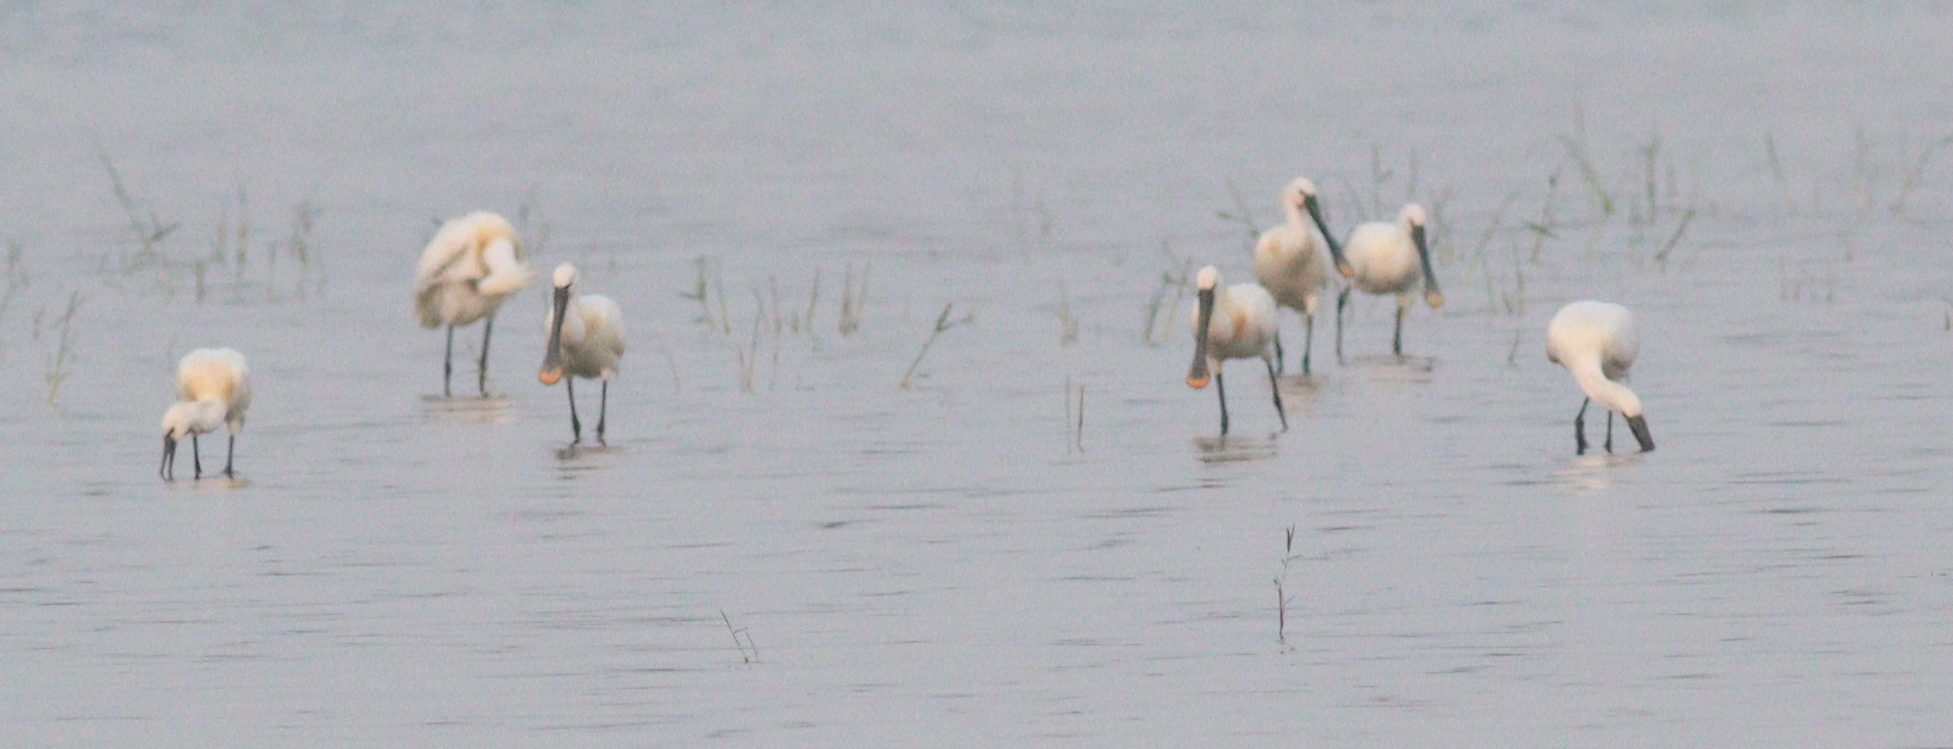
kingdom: Animalia
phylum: Chordata
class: Aves
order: Pelecaniformes
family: Threskiornithidae
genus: Platalea
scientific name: Platalea leucorodia
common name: Eurasian spoonbill
